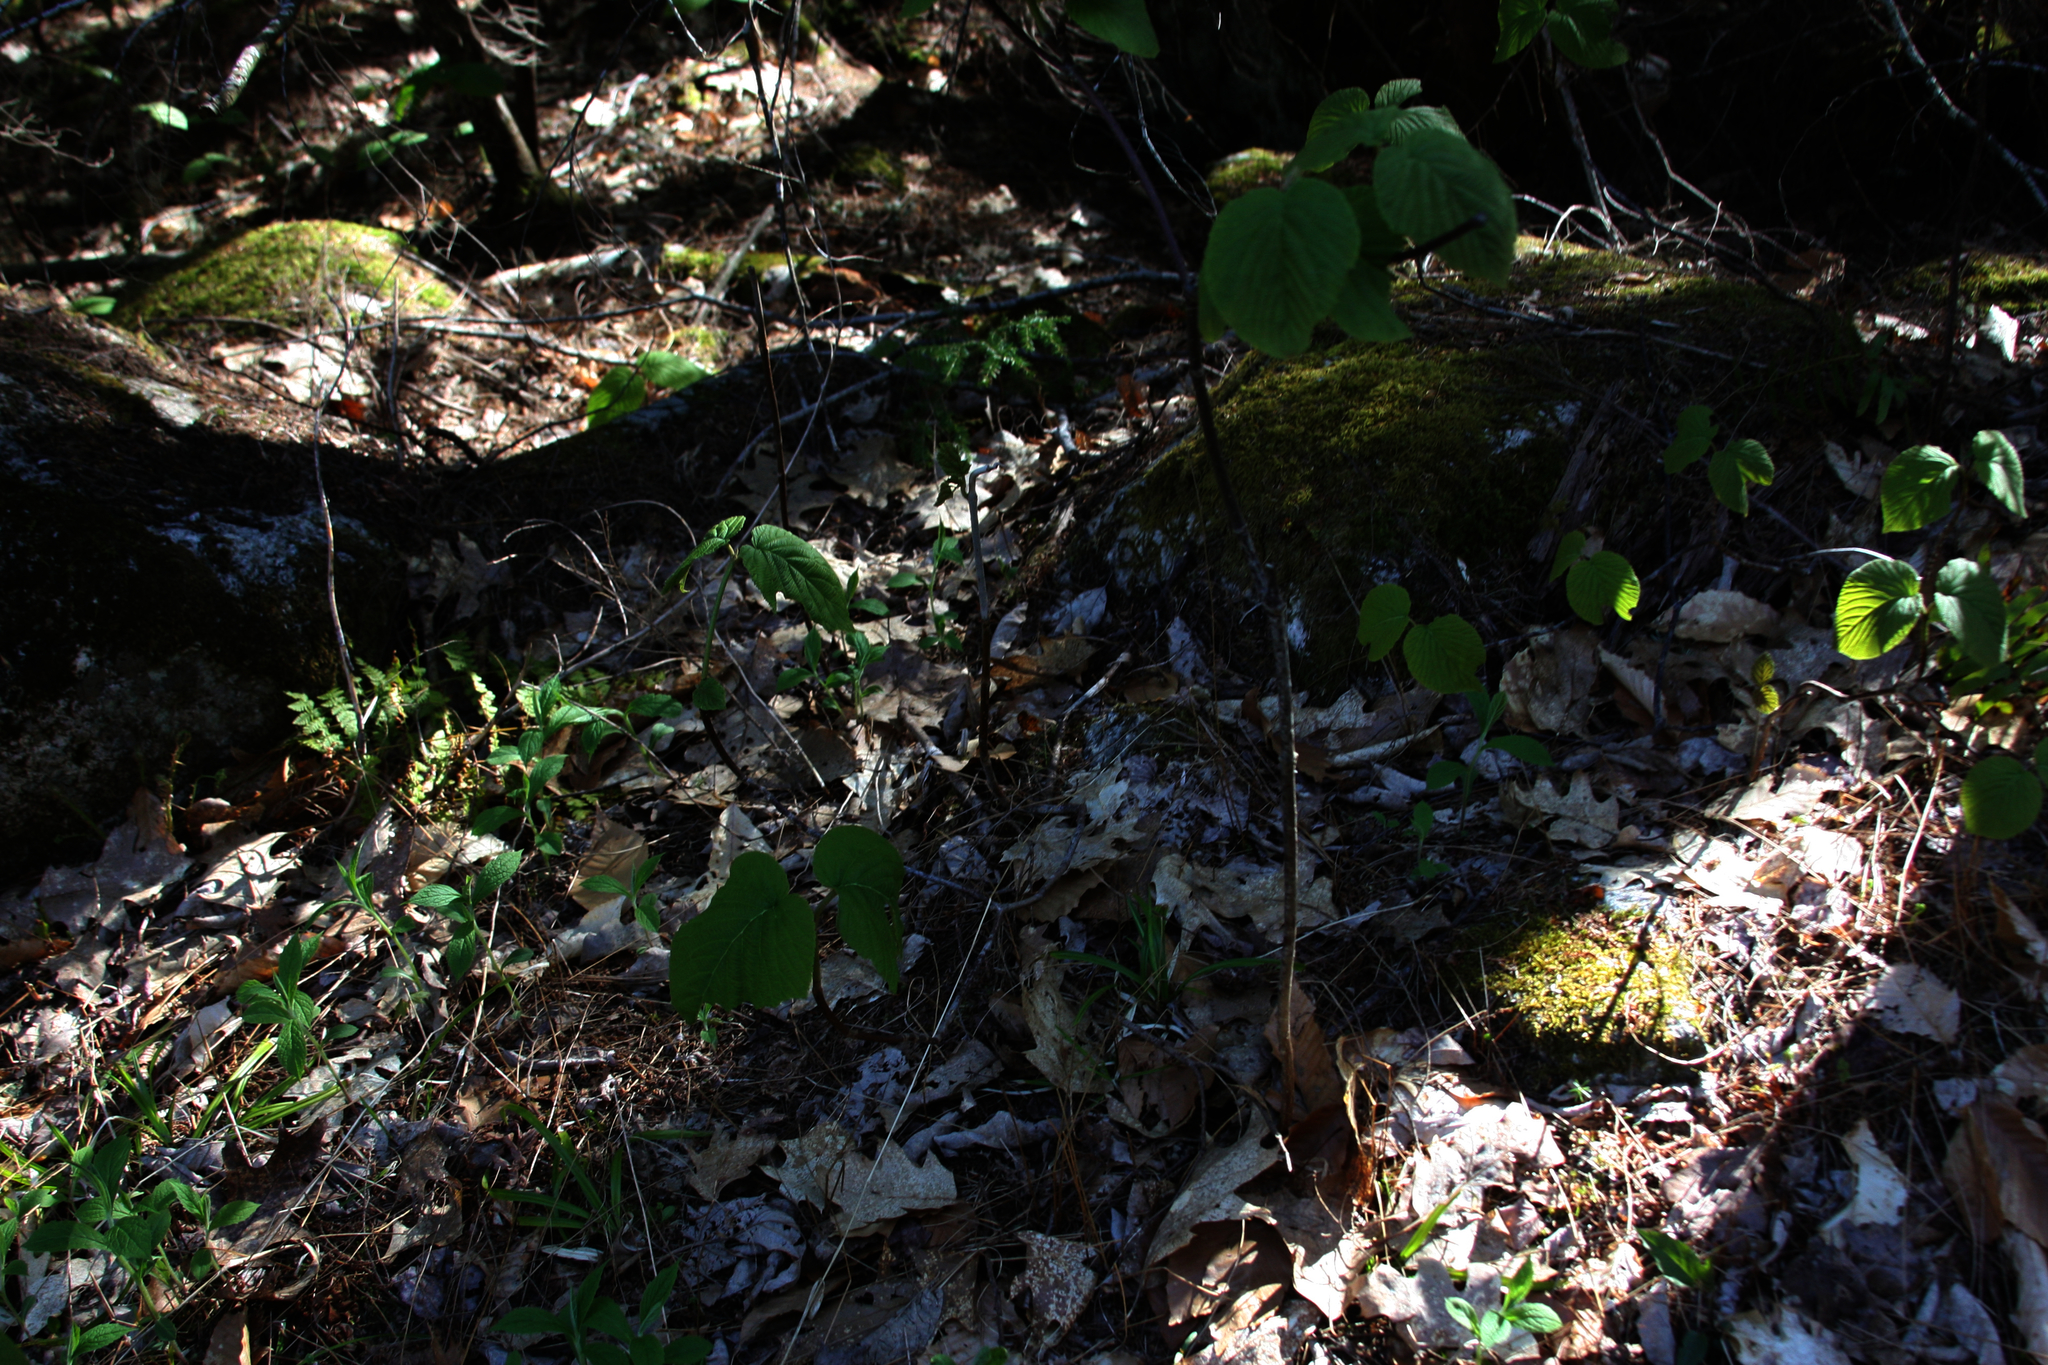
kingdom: Plantae
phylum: Tracheophyta
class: Magnoliopsida
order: Dipsacales
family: Viburnaceae
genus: Viburnum
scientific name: Viburnum lantanoides
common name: Hobblebush
